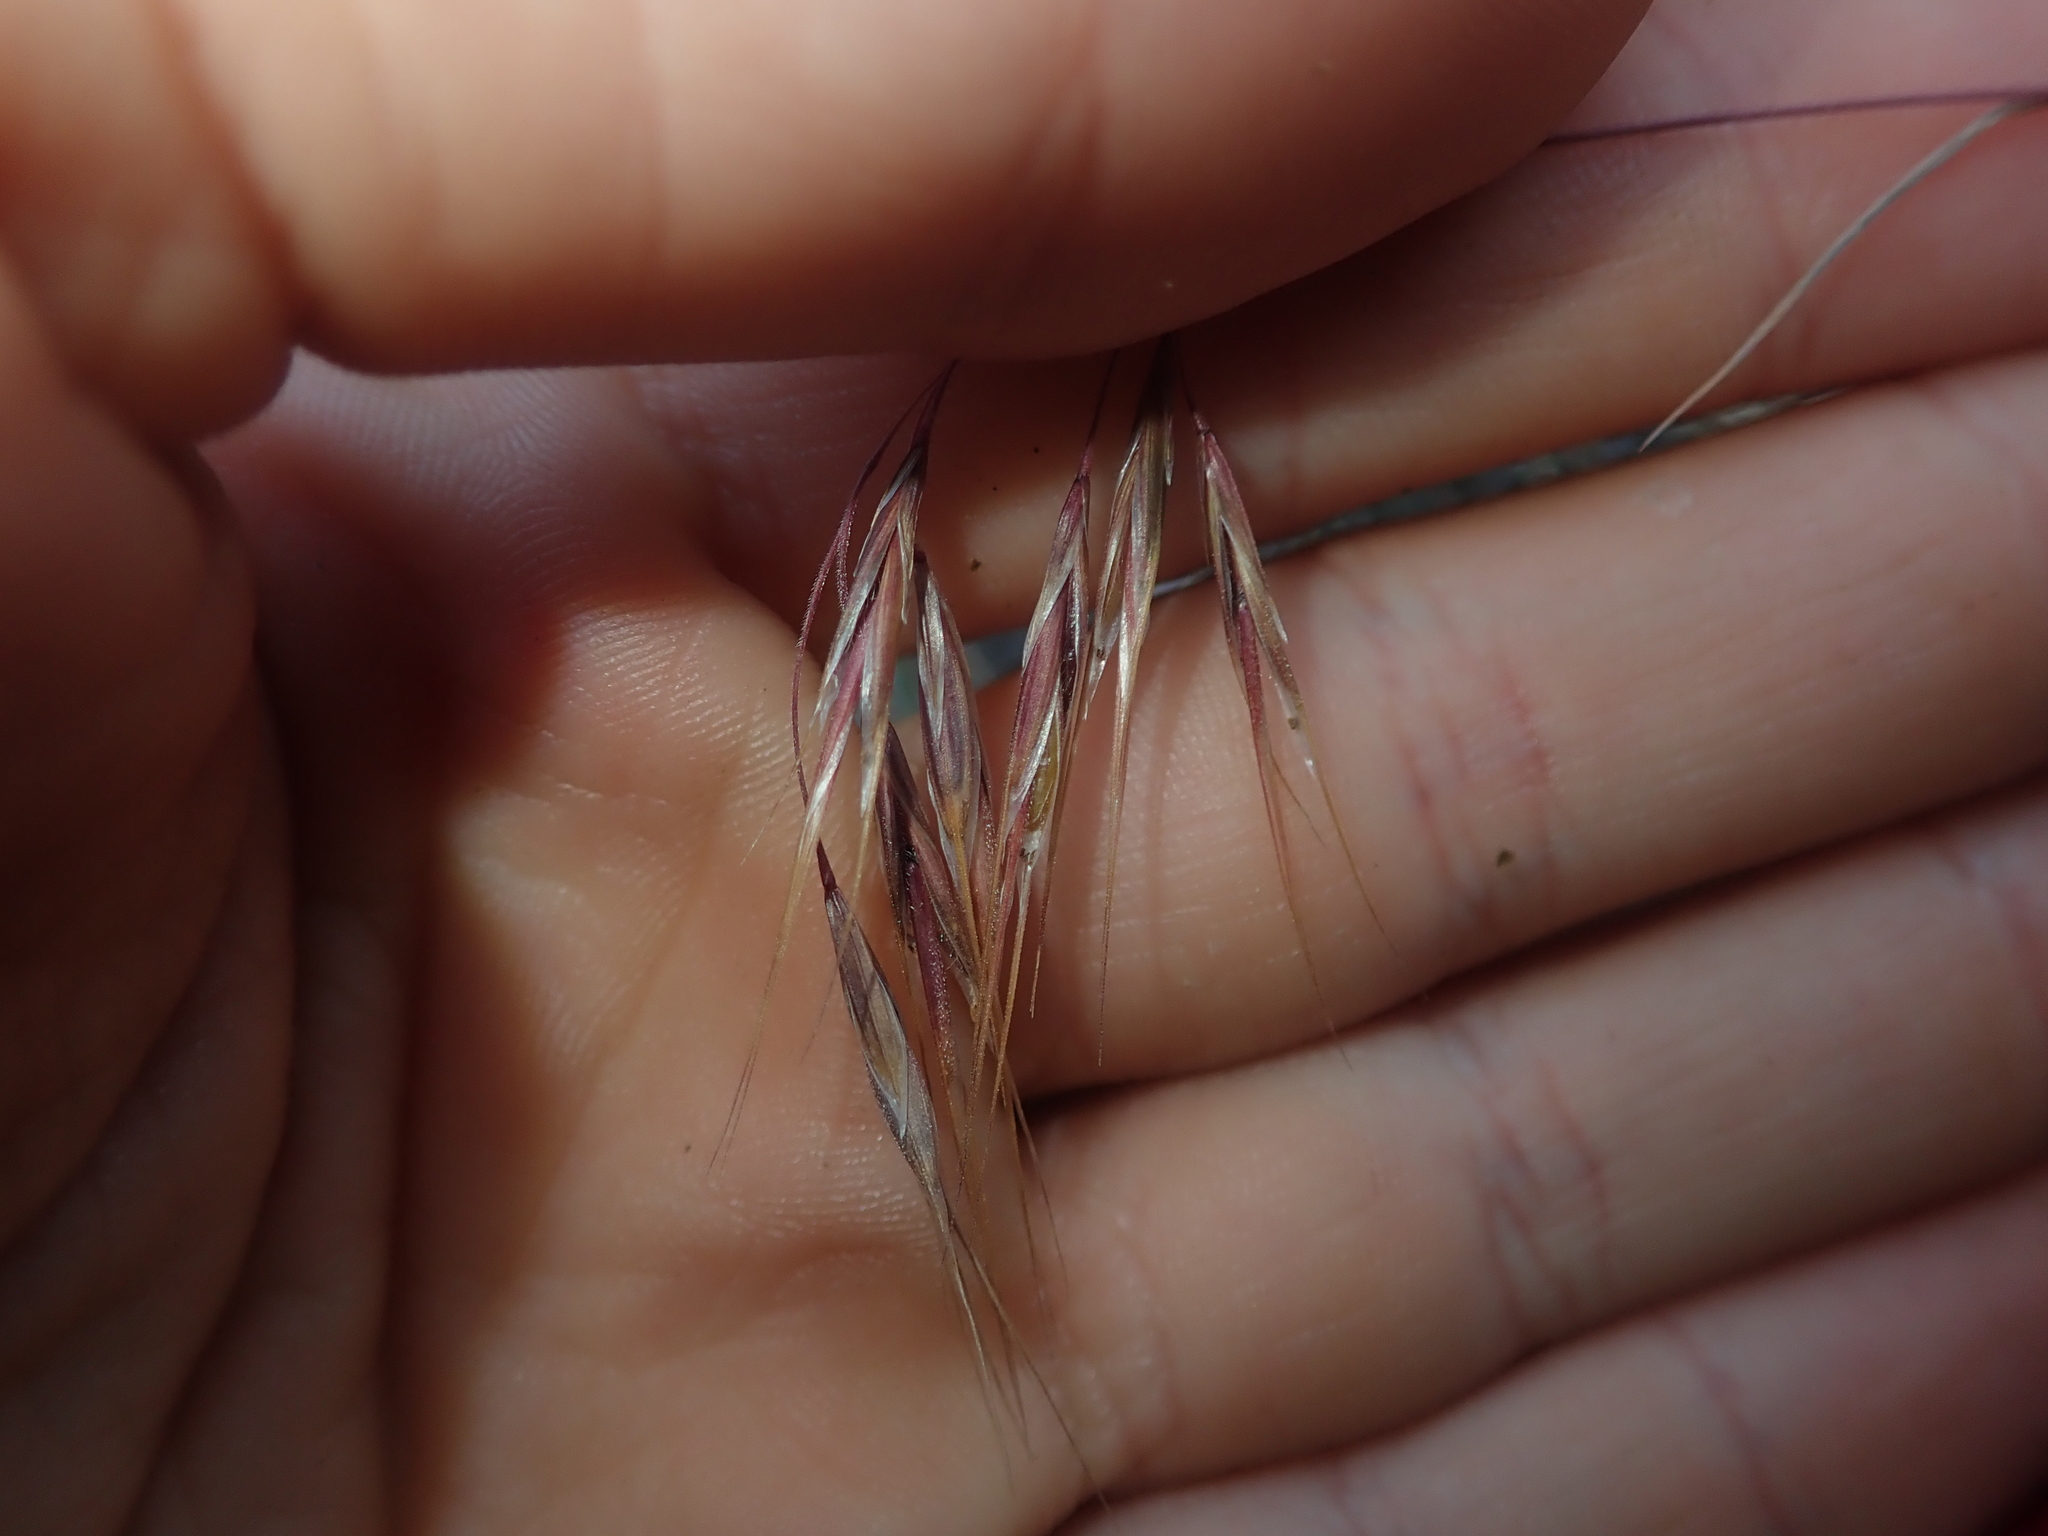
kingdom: Plantae
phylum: Tracheophyta
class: Liliopsida
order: Poales
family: Poaceae
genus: Bromus
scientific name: Bromus tectorum
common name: Cheatgrass
